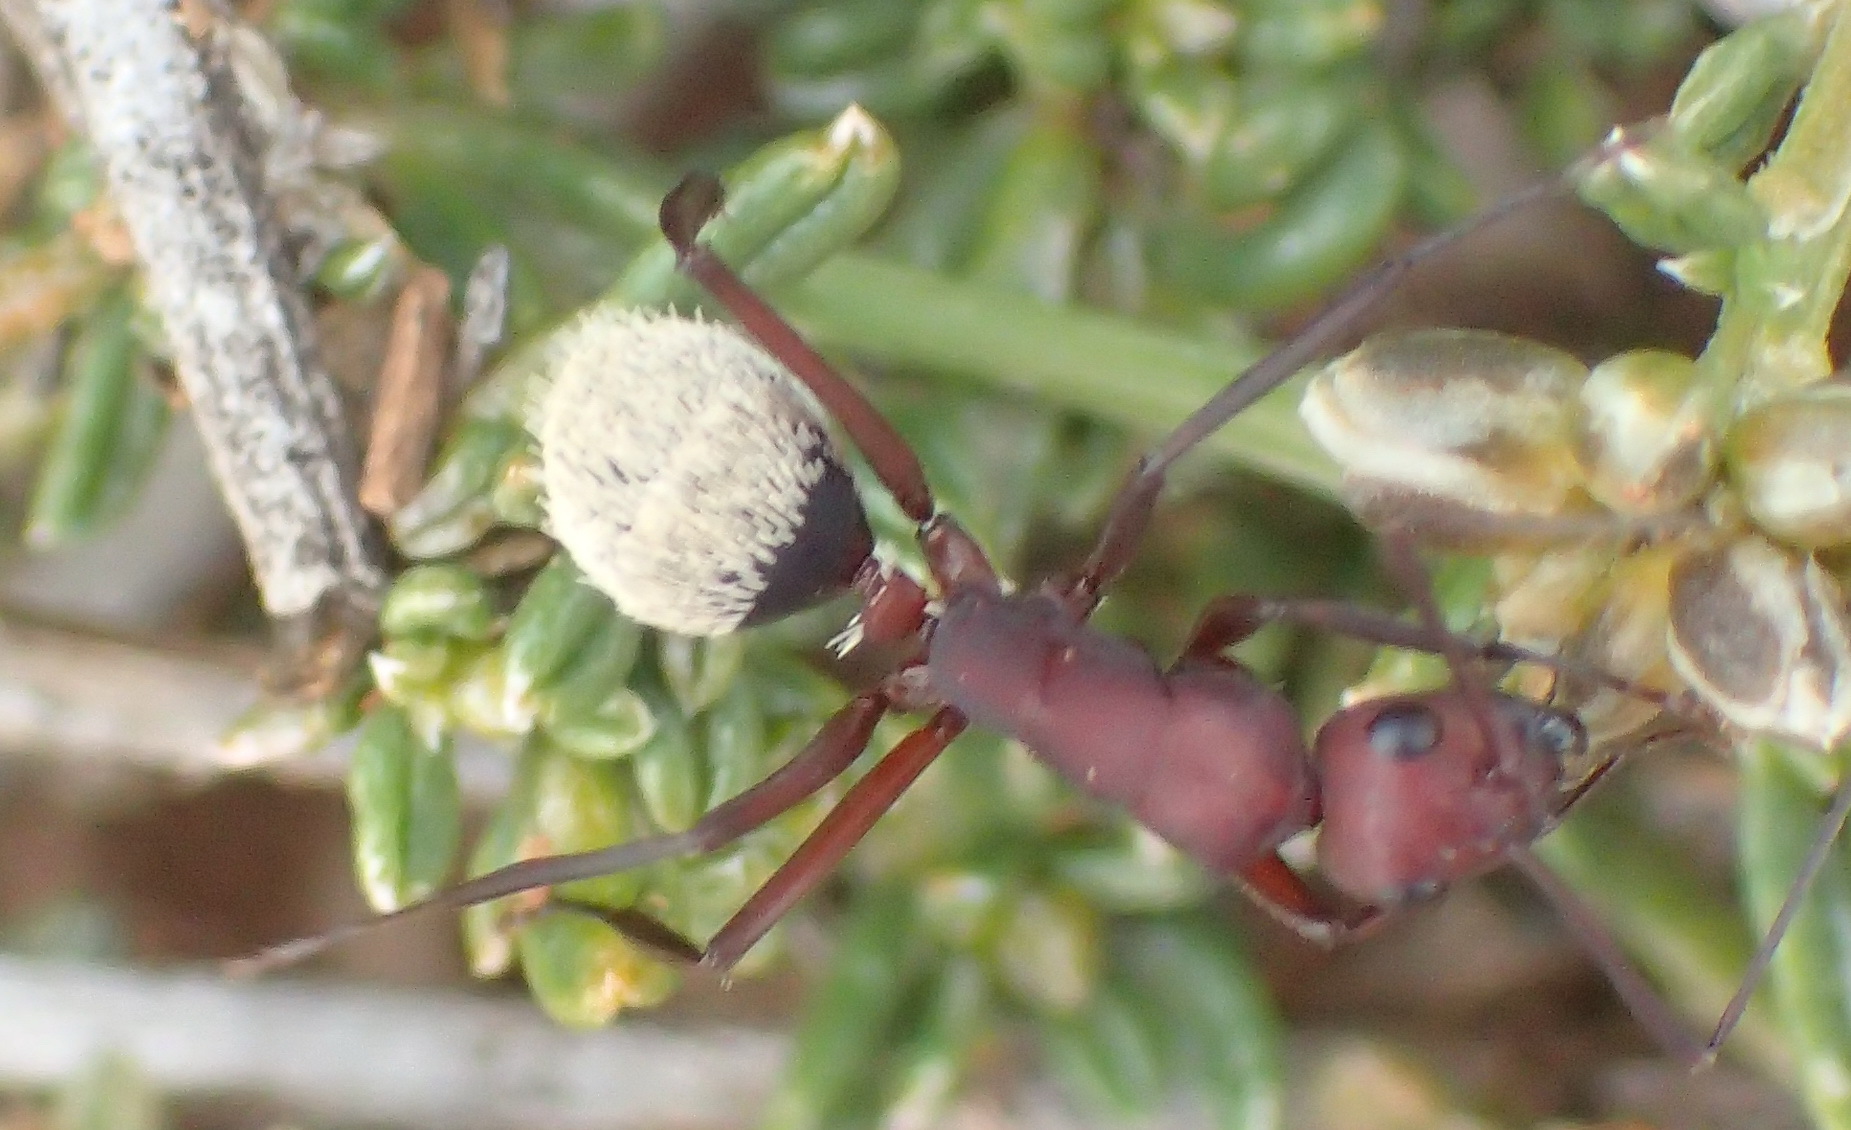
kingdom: Animalia
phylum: Arthropoda
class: Insecta
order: Hymenoptera
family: Formicidae
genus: Camponotus
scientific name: Camponotus storeatus
